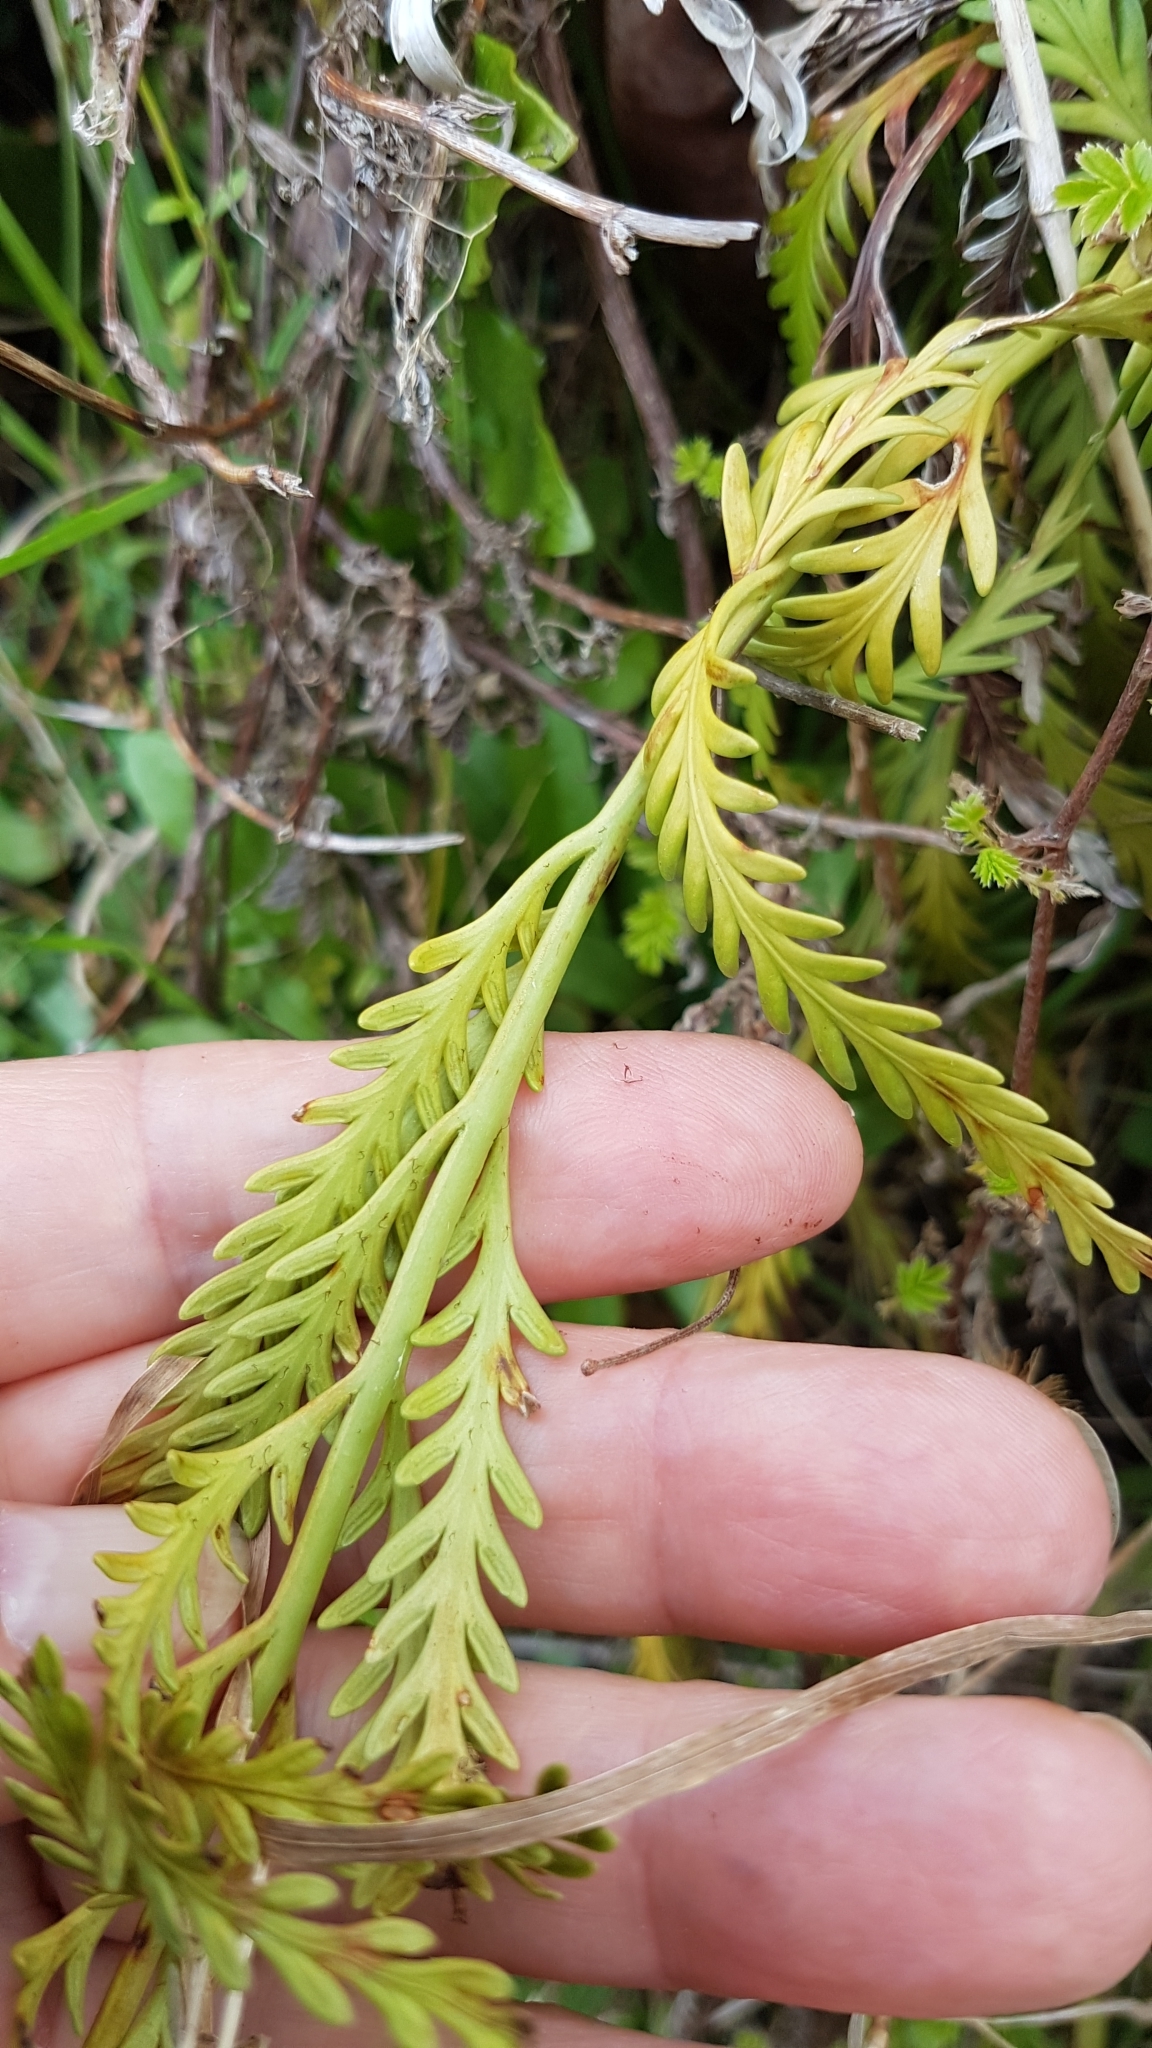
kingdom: Plantae
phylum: Tracheophyta
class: Polypodiopsida
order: Polypodiales
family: Aspleniaceae
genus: Asplenium
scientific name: Asplenium flaccidum
